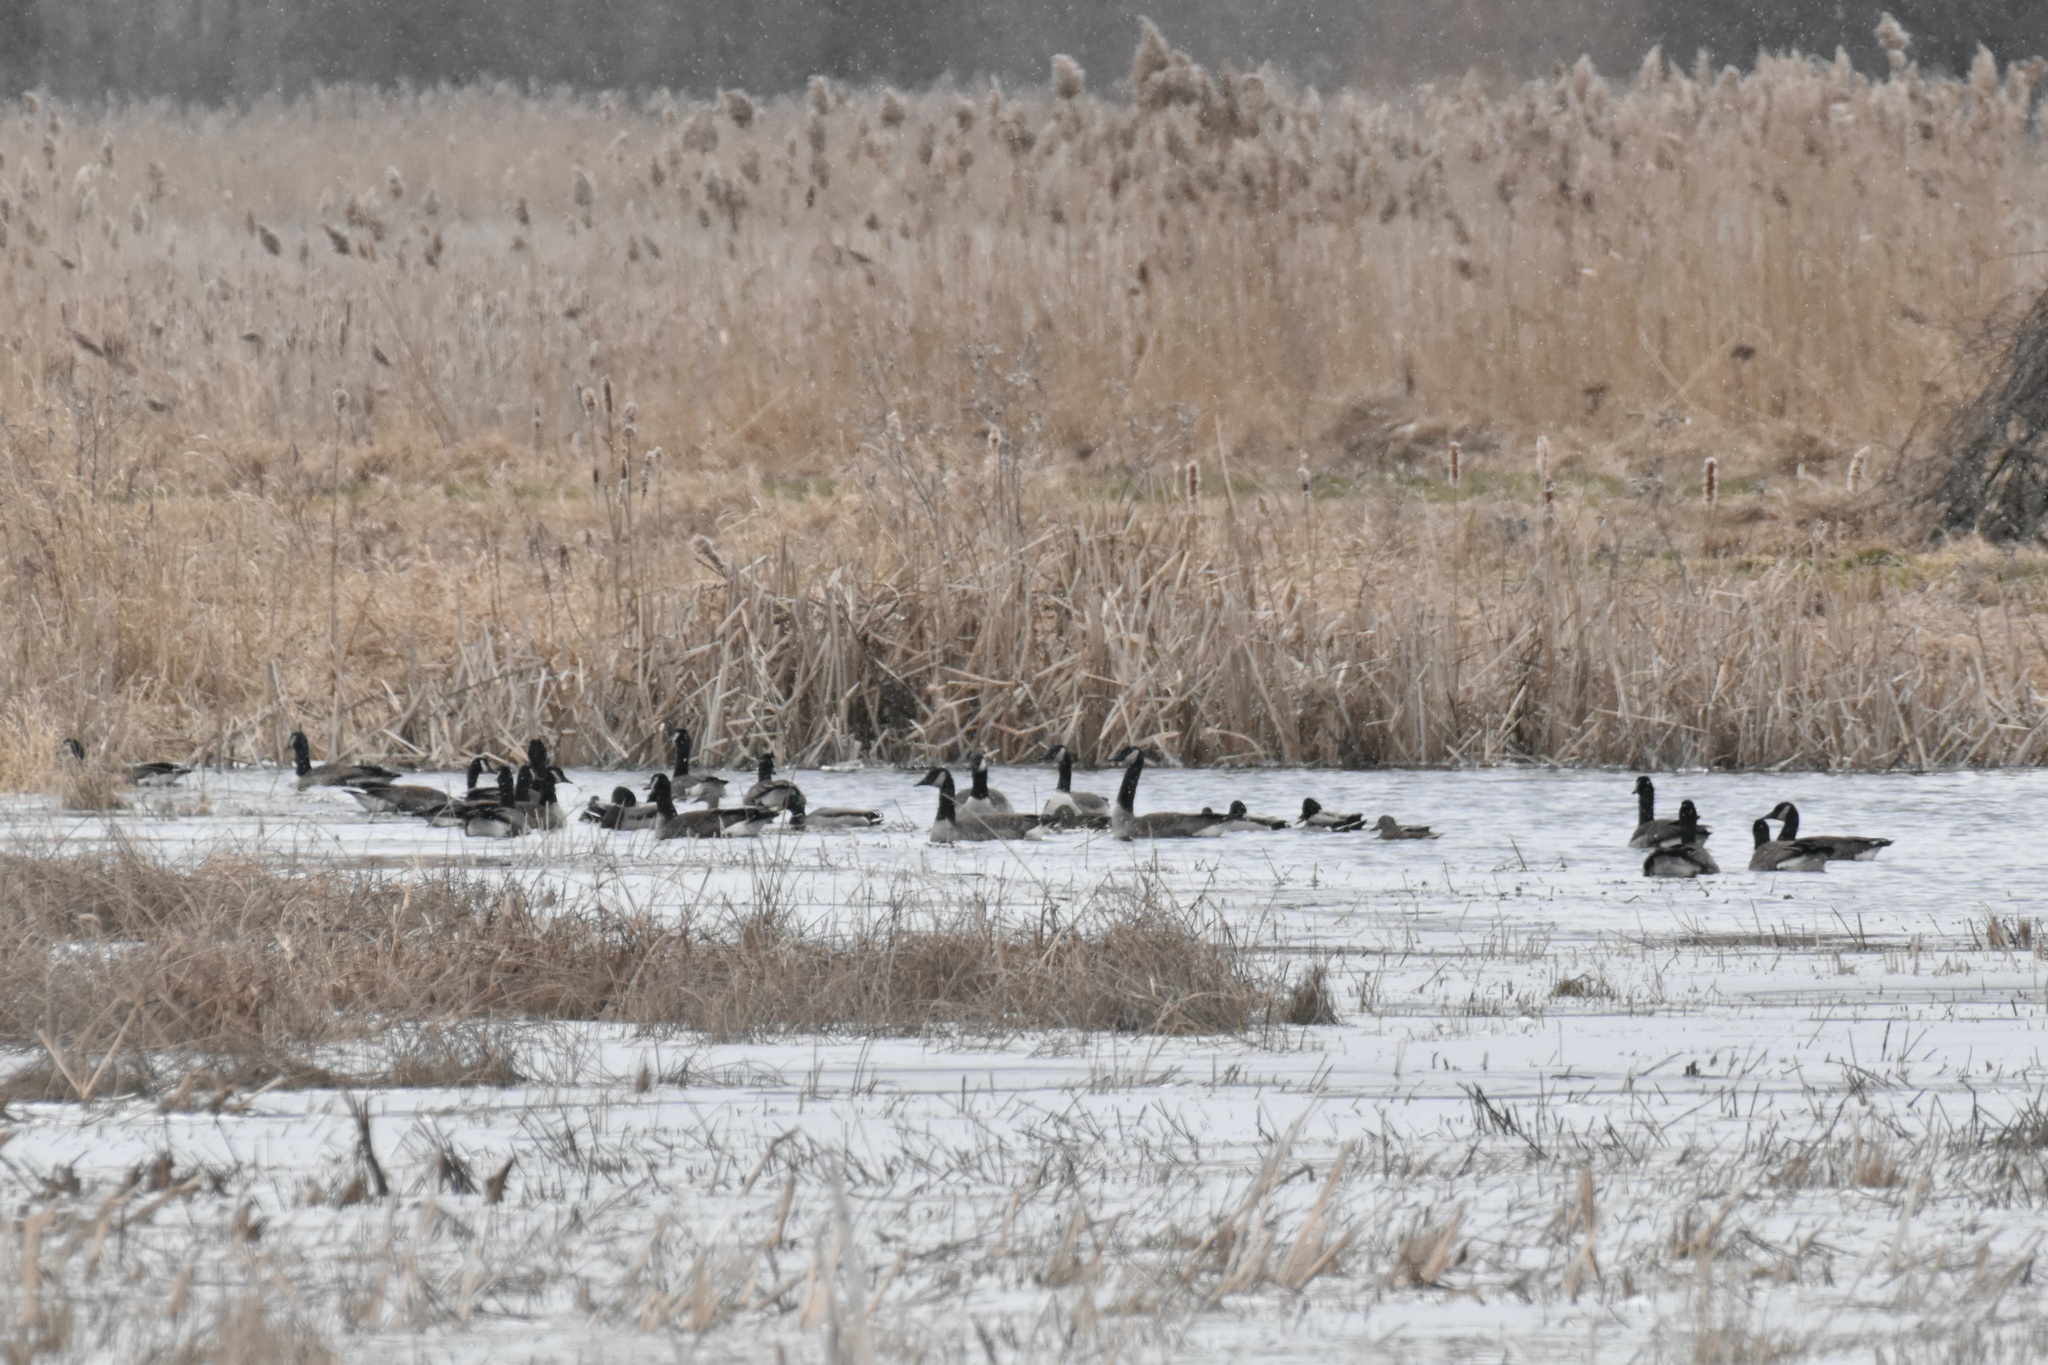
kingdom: Animalia
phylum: Chordata
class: Aves
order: Anseriformes
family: Anatidae
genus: Anas
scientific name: Anas platyrhynchos
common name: Mallard
